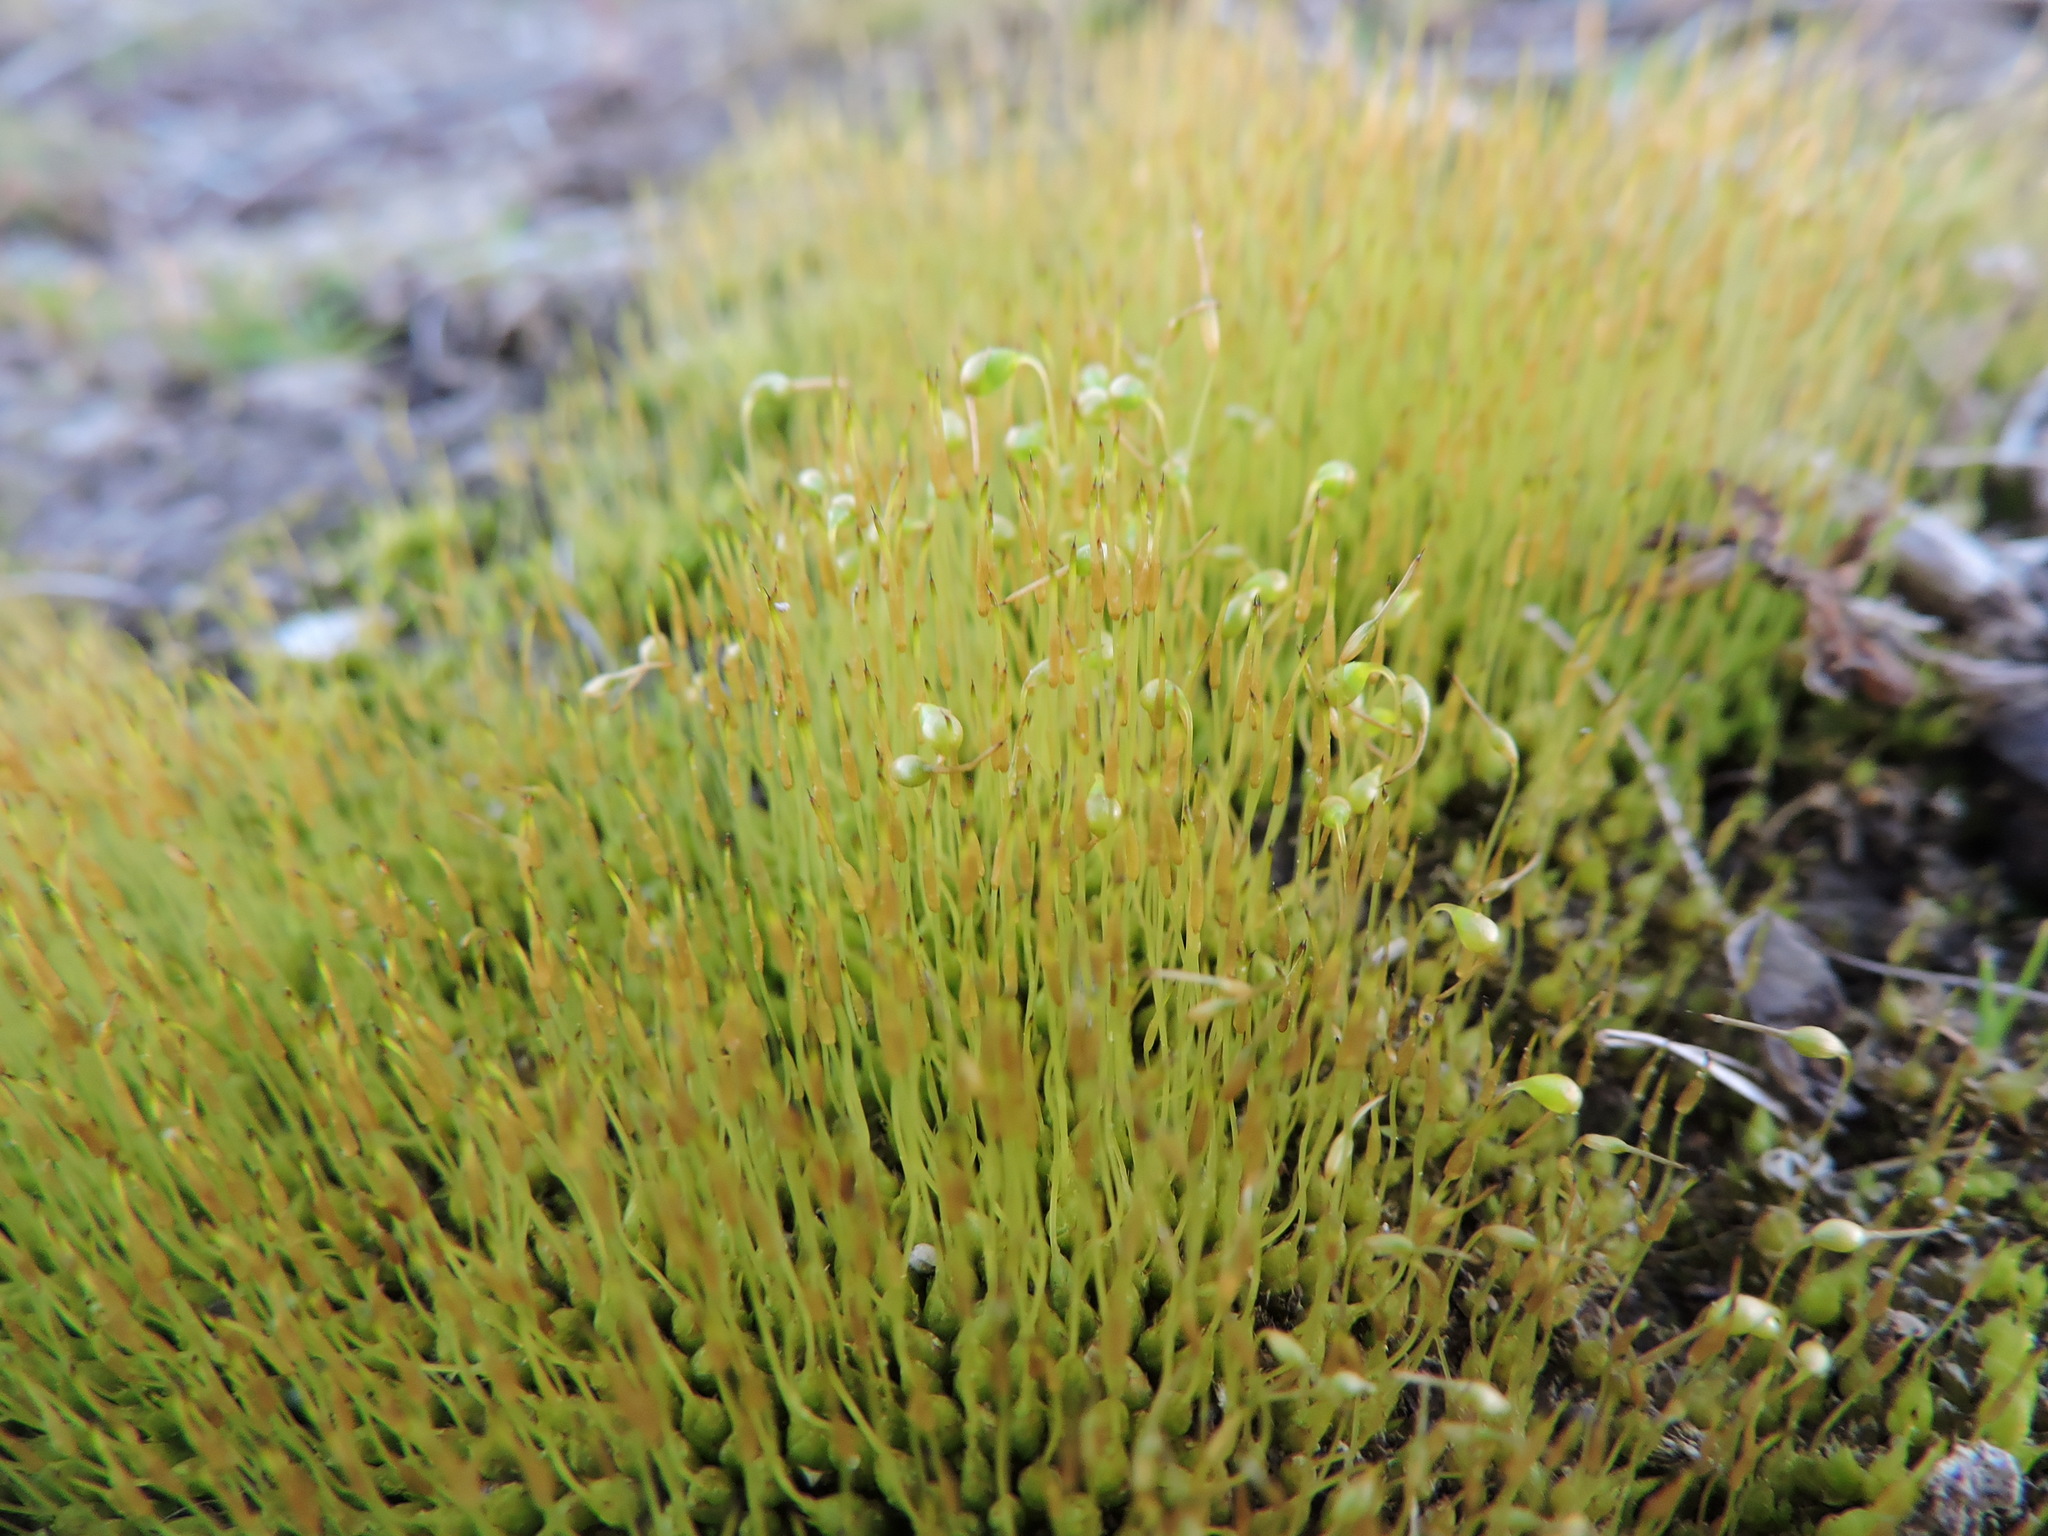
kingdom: Plantae
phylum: Bryophyta
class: Bryopsida
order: Funariales
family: Funariaceae
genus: Funaria
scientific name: Funaria hygrometrica
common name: Common cord moss
